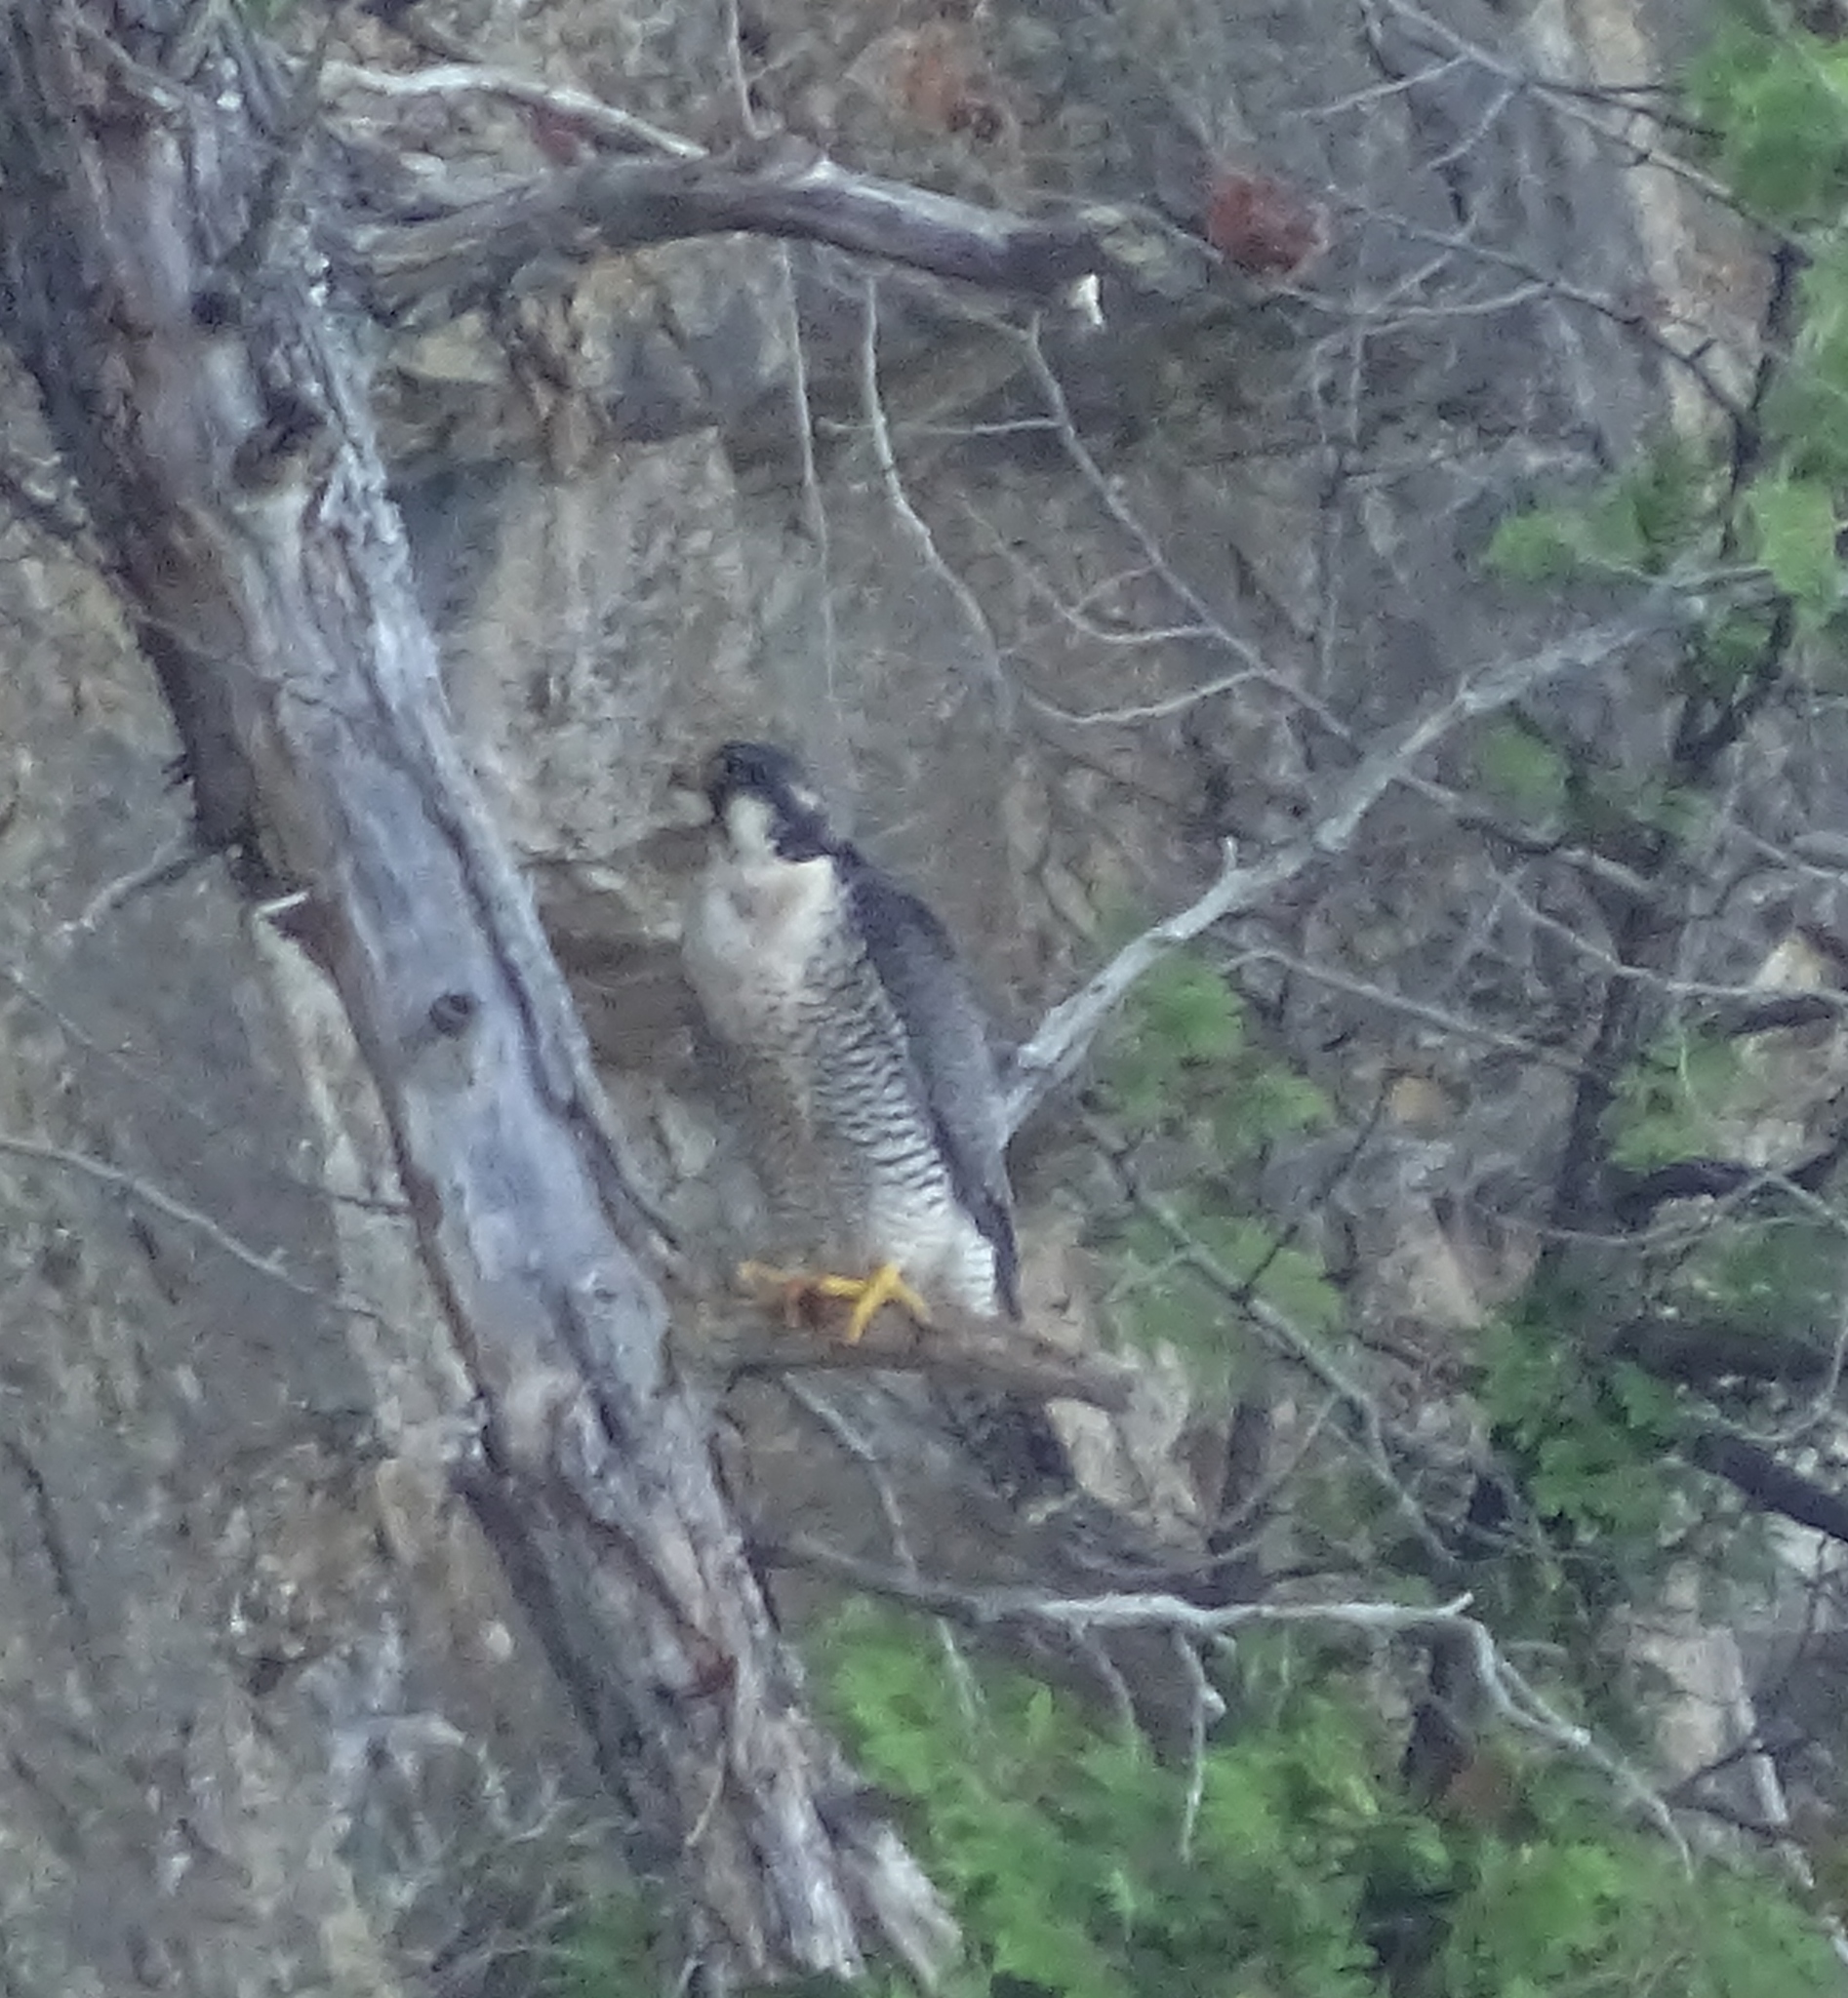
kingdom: Animalia
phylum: Chordata
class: Aves
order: Falconiformes
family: Falconidae
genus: Falco
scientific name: Falco peregrinus
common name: Peregrine falcon
